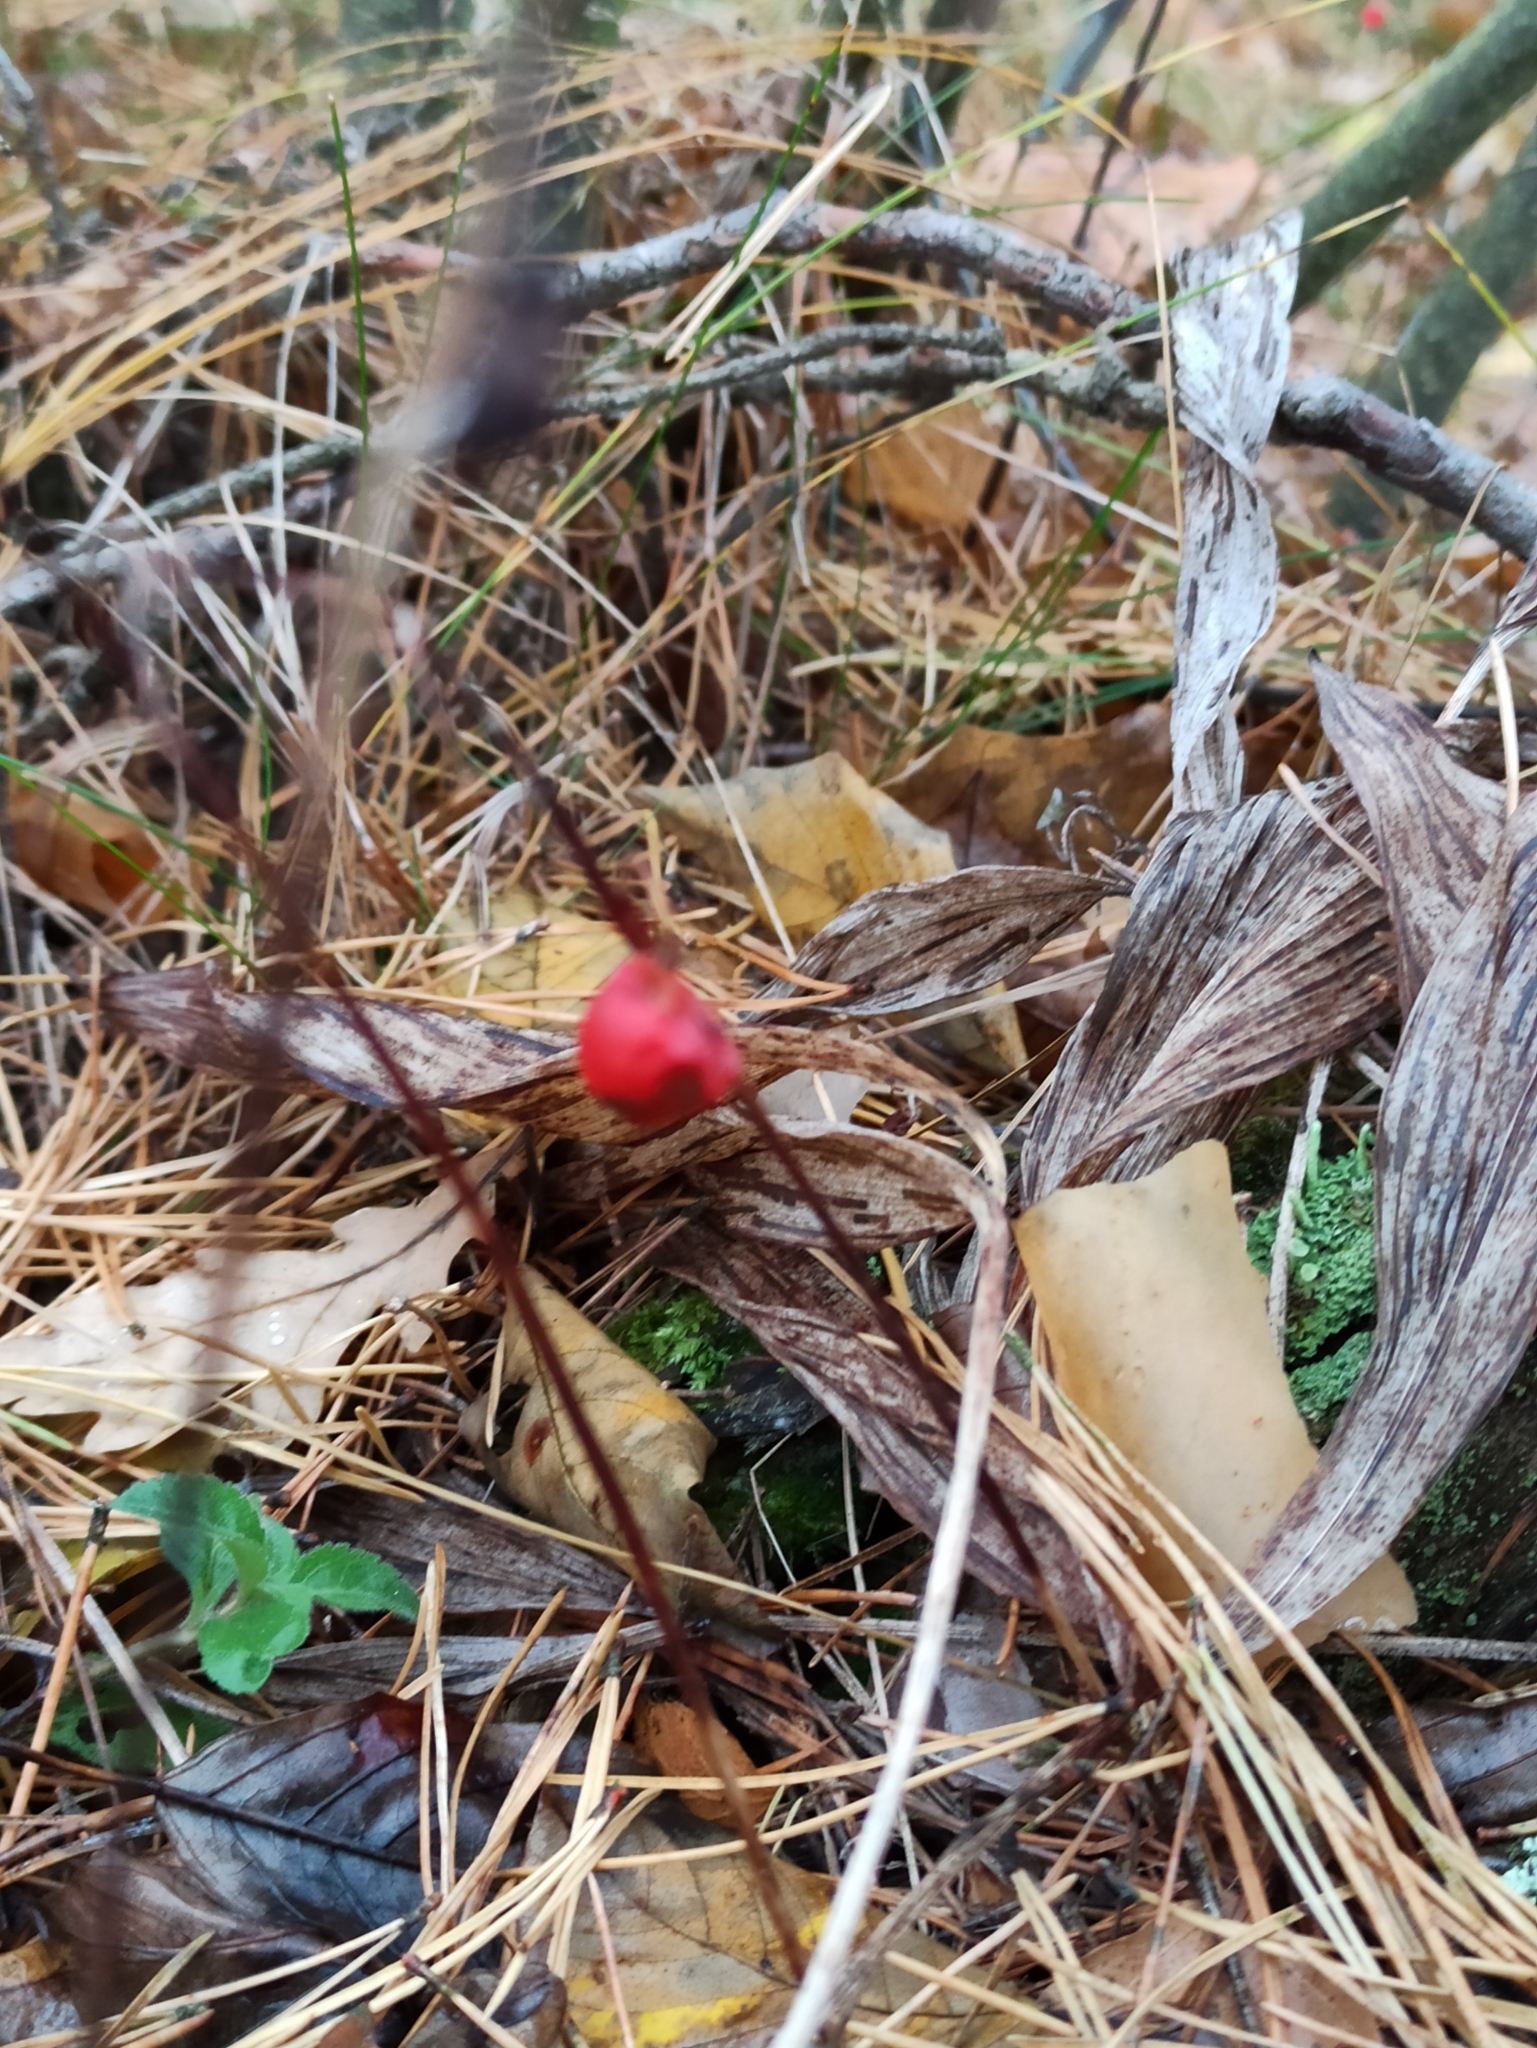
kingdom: Plantae
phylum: Tracheophyta
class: Liliopsida
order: Asparagales
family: Asparagaceae
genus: Convallaria
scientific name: Convallaria majalis
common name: Lily-of-the-valley
